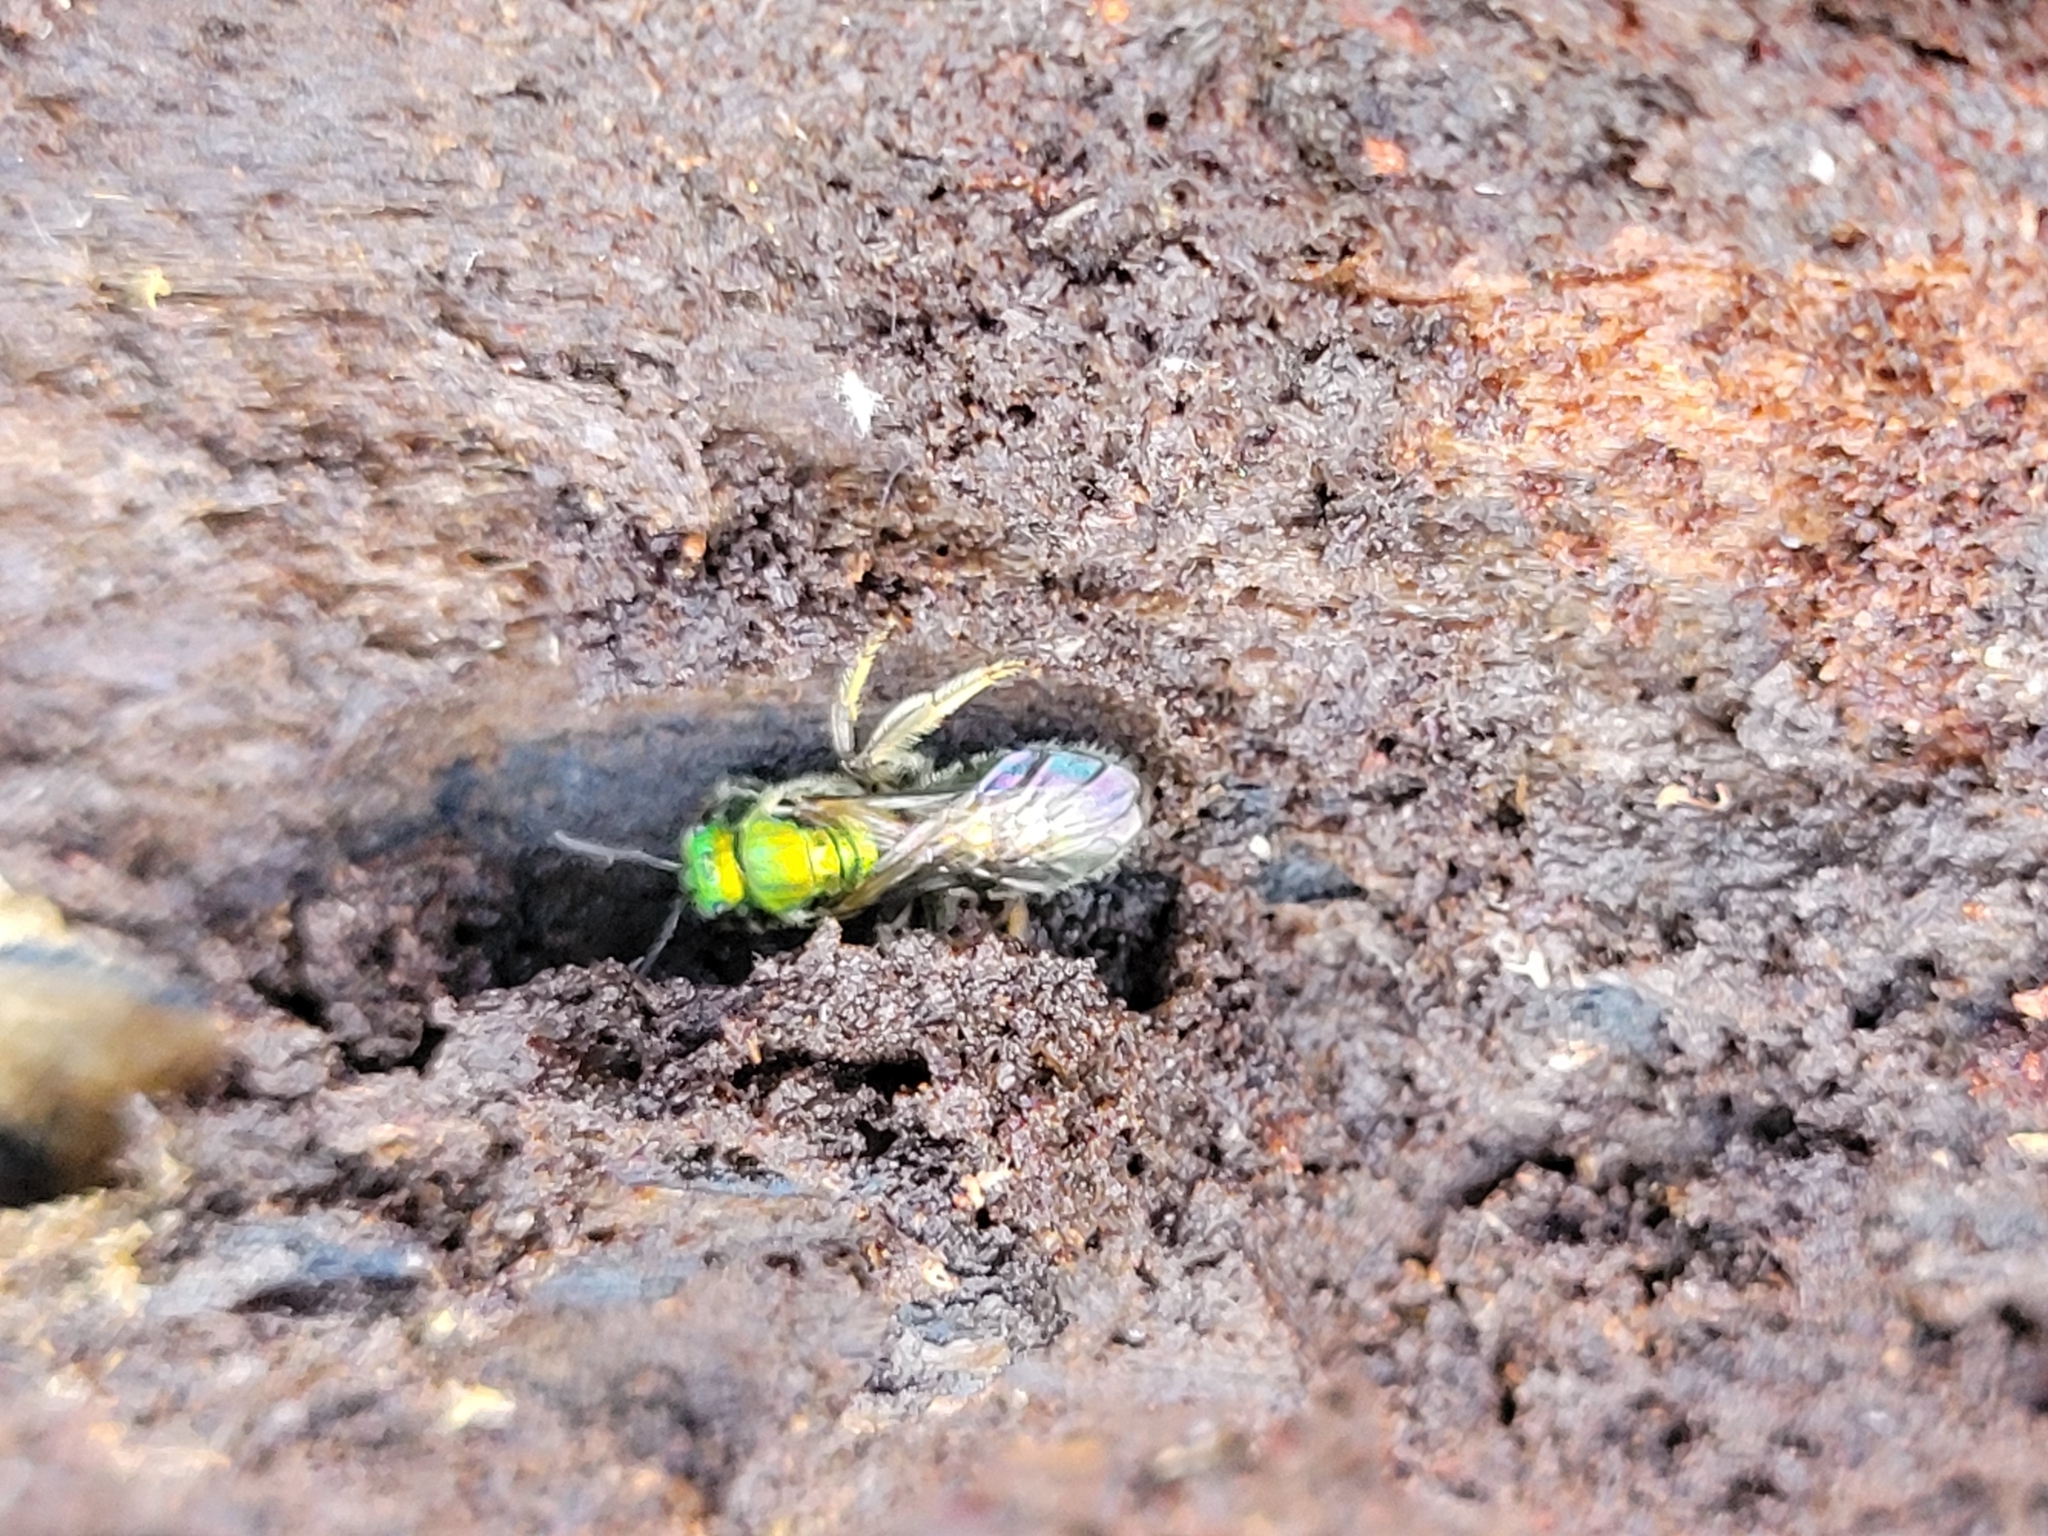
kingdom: Animalia
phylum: Arthropoda
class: Insecta
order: Hymenoptera
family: Halictidae
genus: Augochlora
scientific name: Augochlora pura
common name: Pure green sweat bee
